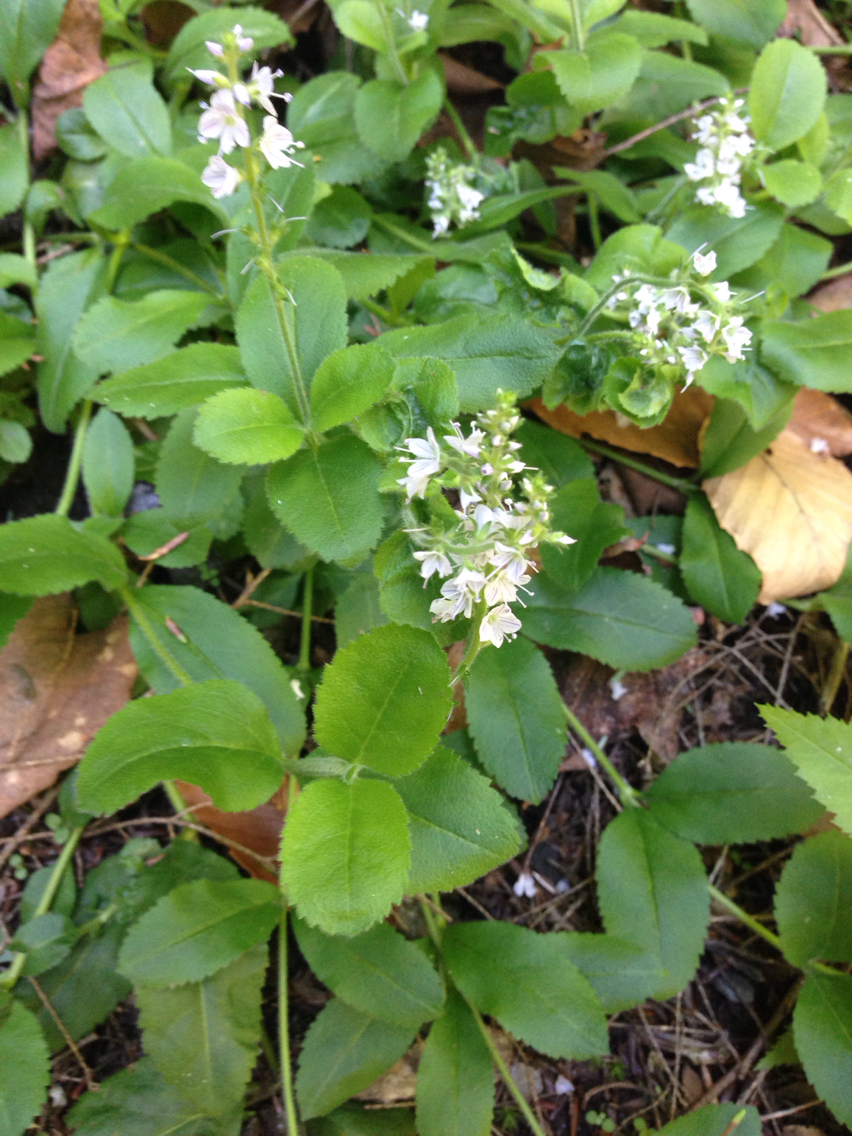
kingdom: Plantae
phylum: Tracheophyta
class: Magnoliopsida
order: Lamiales
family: Plantaginaceae
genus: Veronica
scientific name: Veronica officinalis
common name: Common speedwell
